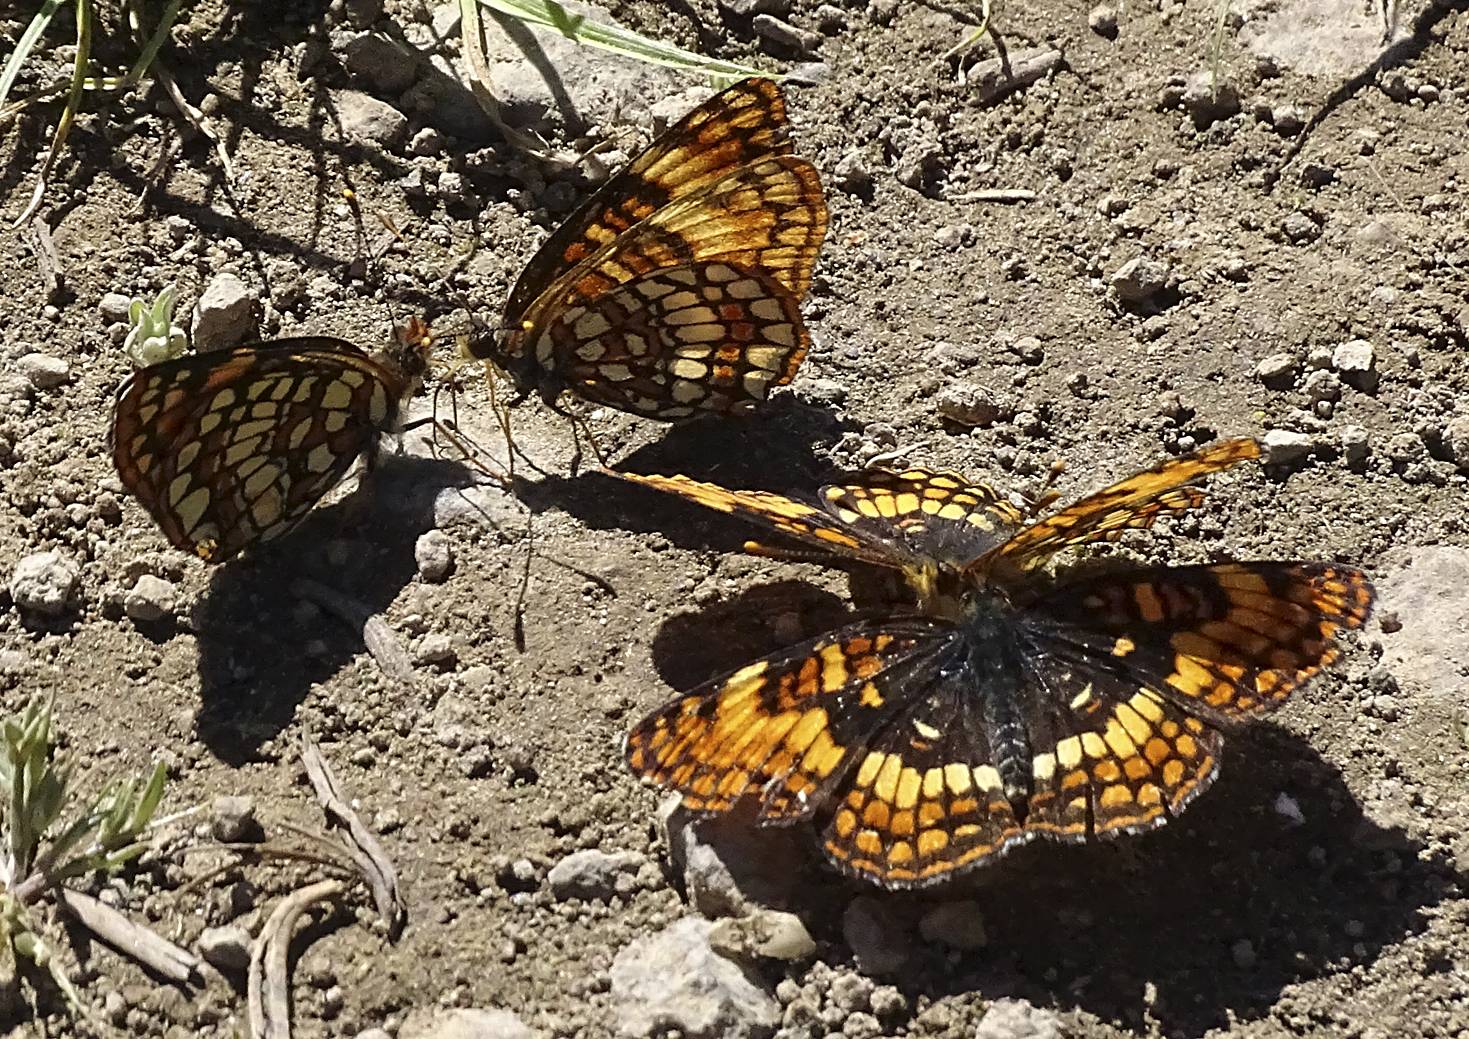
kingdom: Animalia
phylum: Arthropoda
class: Insecta
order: Lepidoptera
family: Nymphalidae
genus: Chlosyne
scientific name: Chlosyne hoffmanni
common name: Hoffmann's checkerspot
